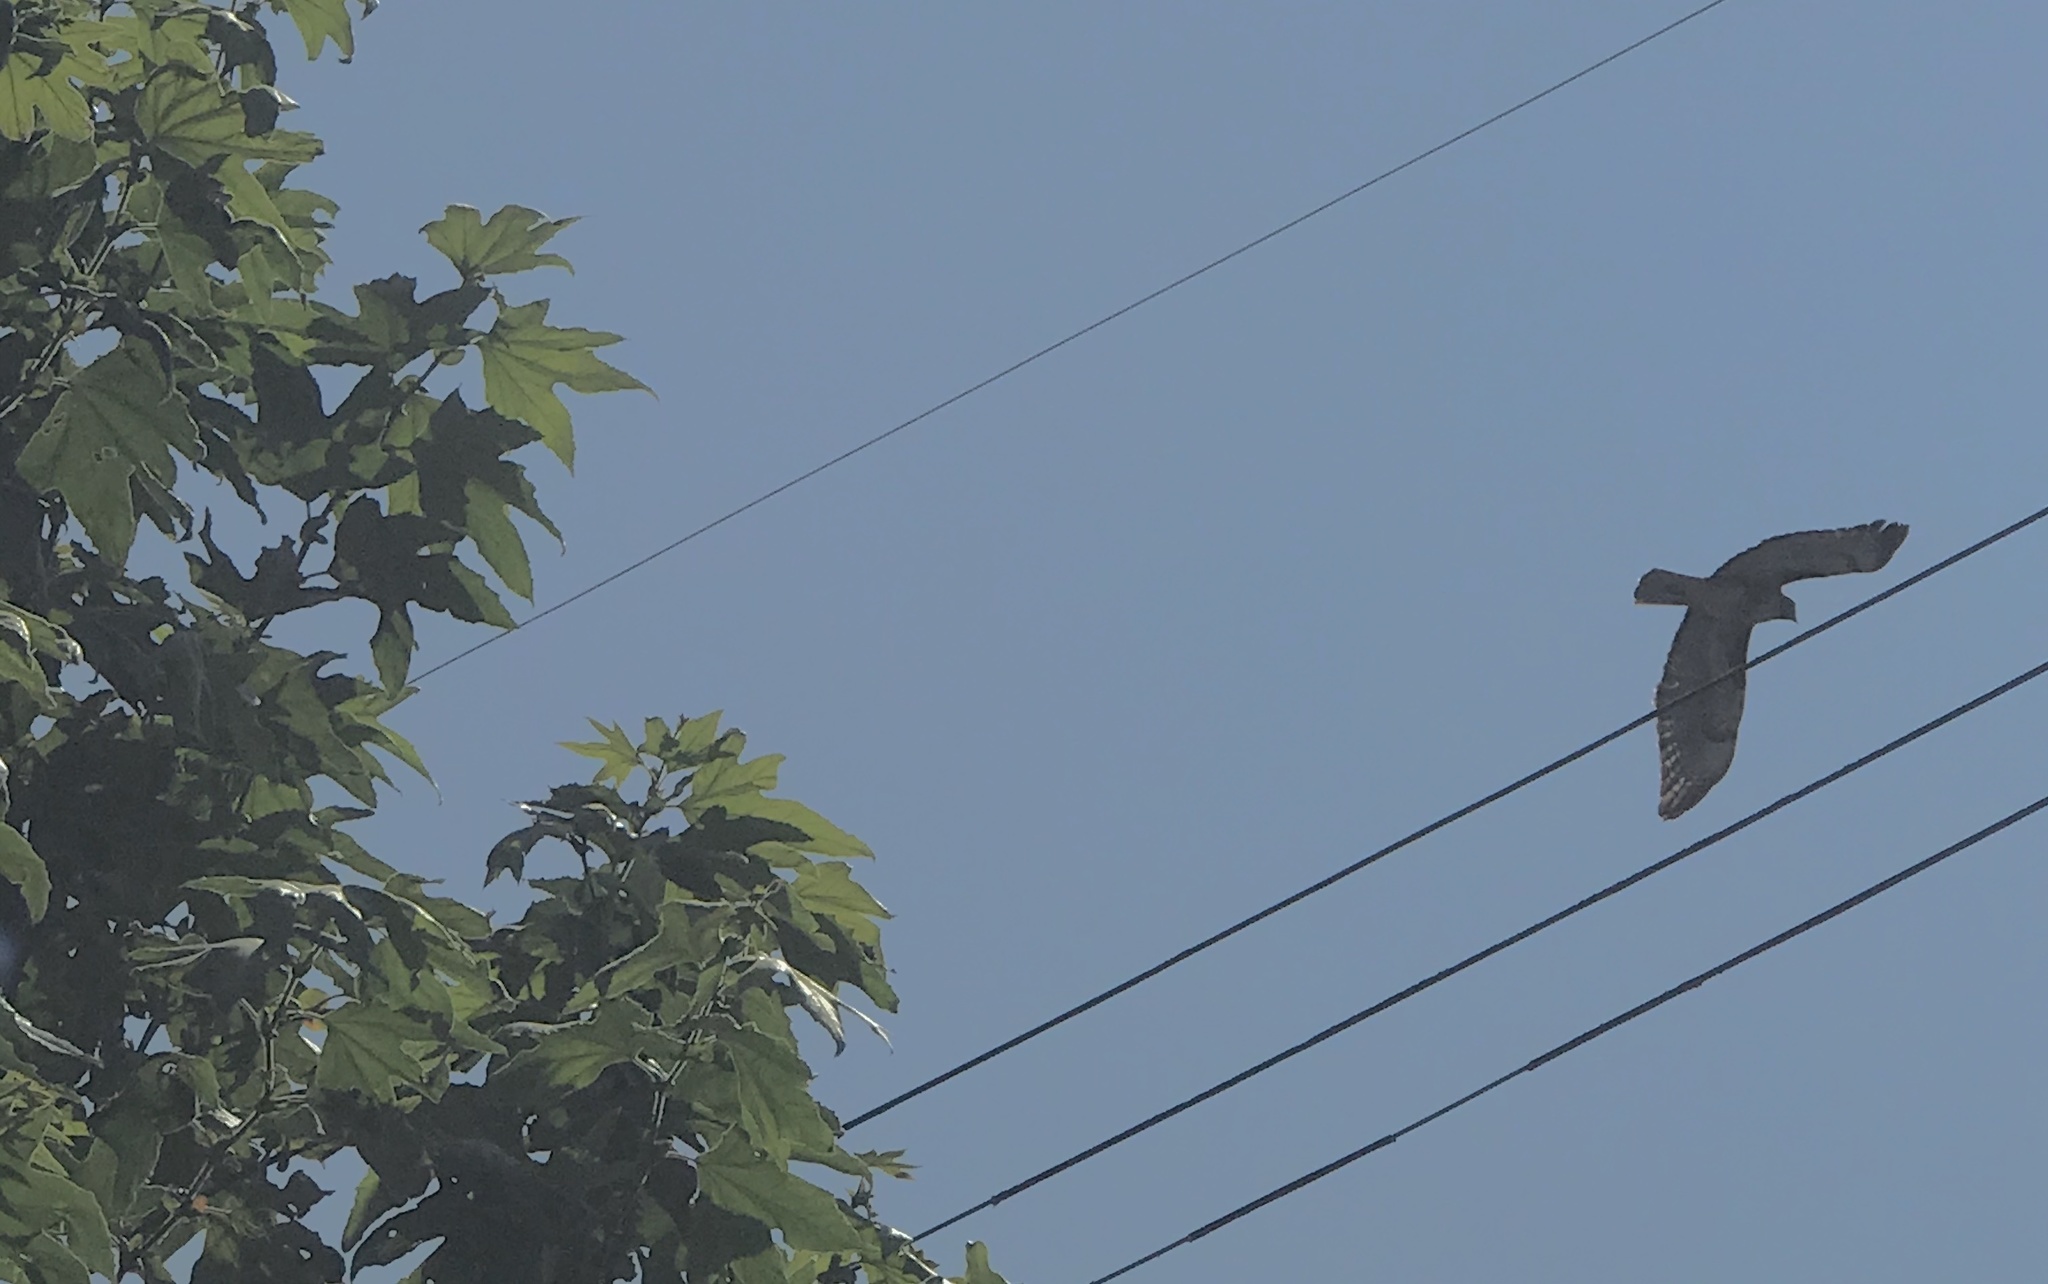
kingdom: Animalia
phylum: Chordata
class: Aves
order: Accipitriformes
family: Accipitridae
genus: Buteo
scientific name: Buteo jamaicensis
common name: Red-tailed hawk
